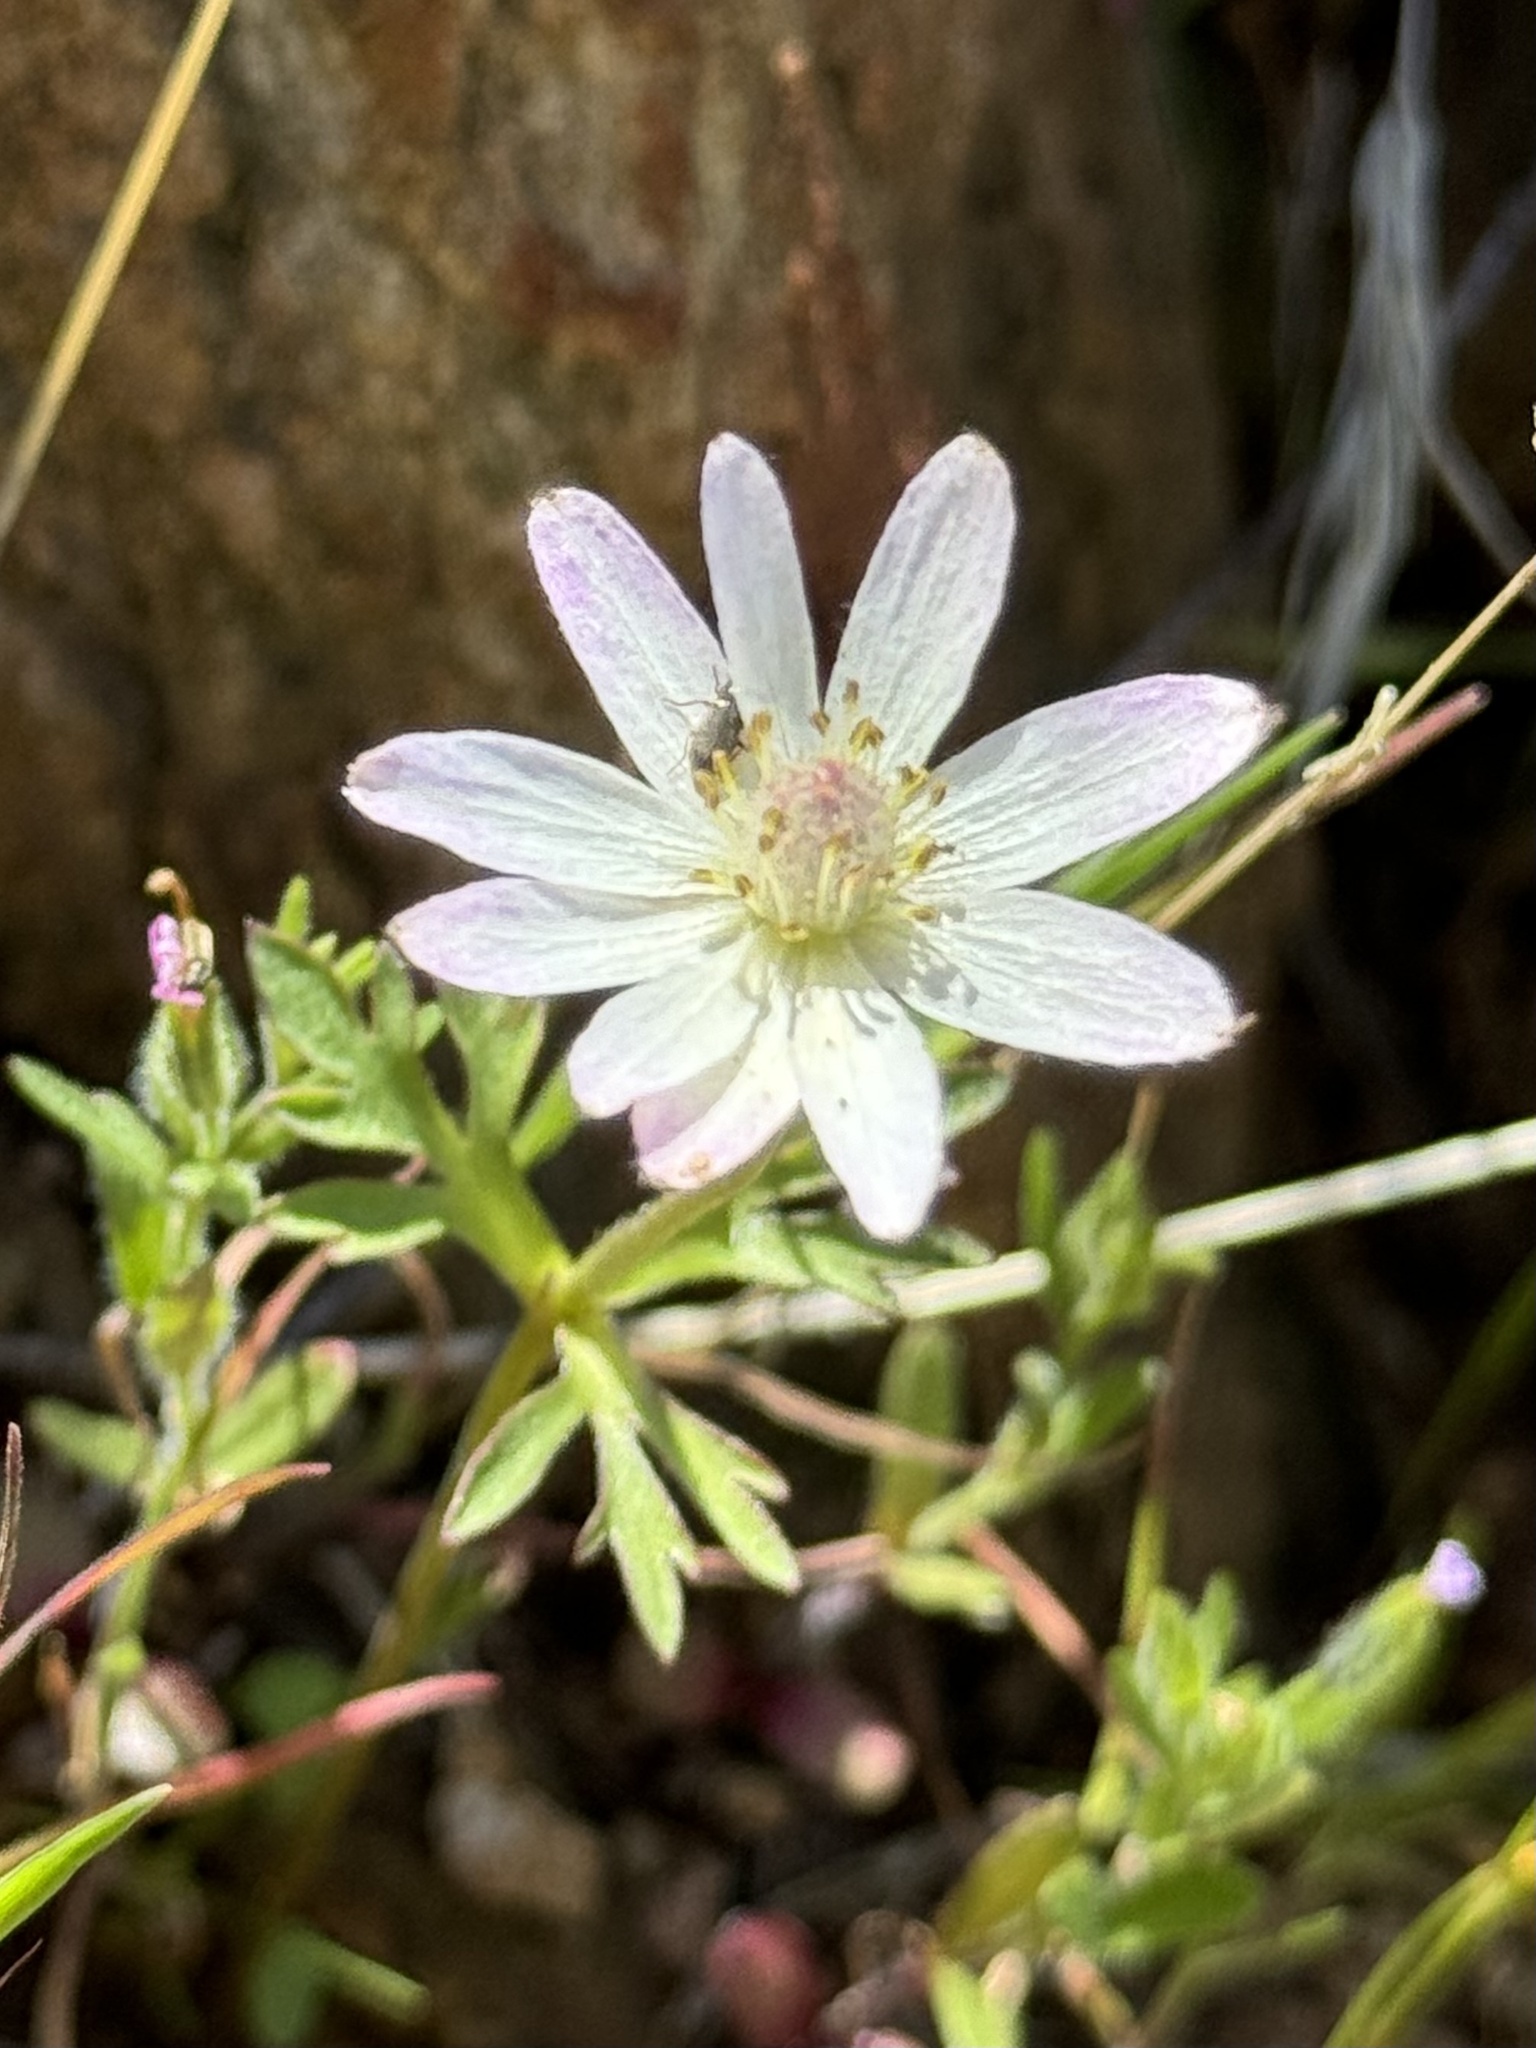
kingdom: Plantae
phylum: Tracheophyta
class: Magnoliopsida
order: Ranunculales
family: Ranunculaceae
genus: Anemone
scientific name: Anemone tuberosa
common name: Desert anemone
